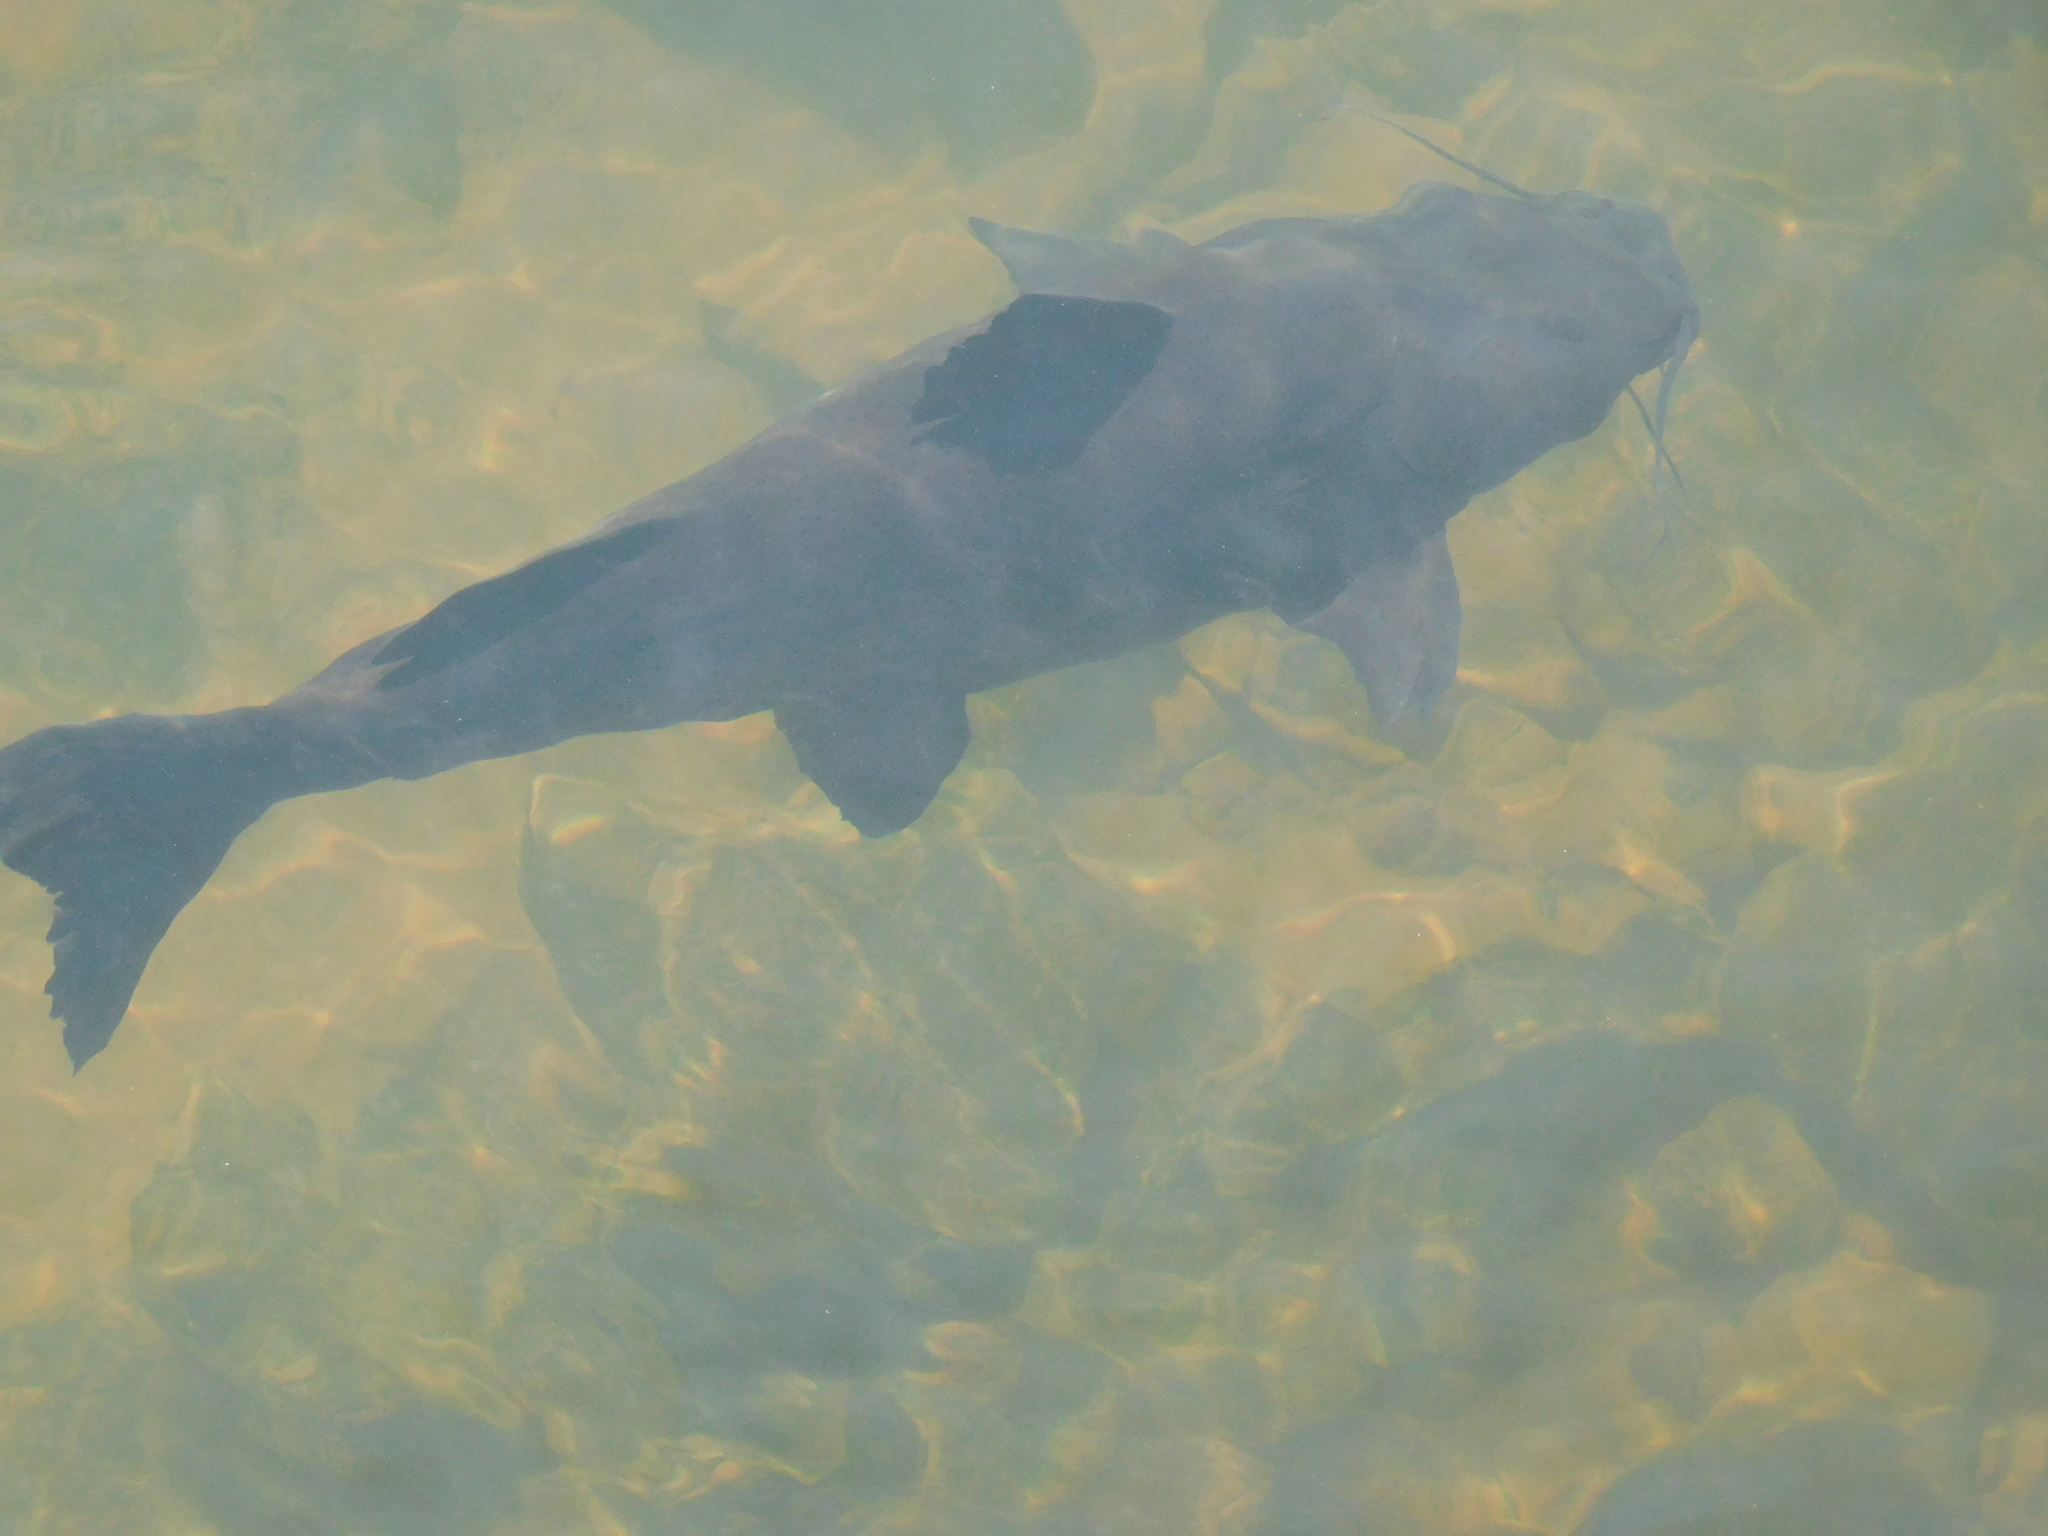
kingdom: Animalia
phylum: Chordata
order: Siluriformes
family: Pimelodidae
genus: Steindachneridion
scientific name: Steindachneridion melanodermatum
